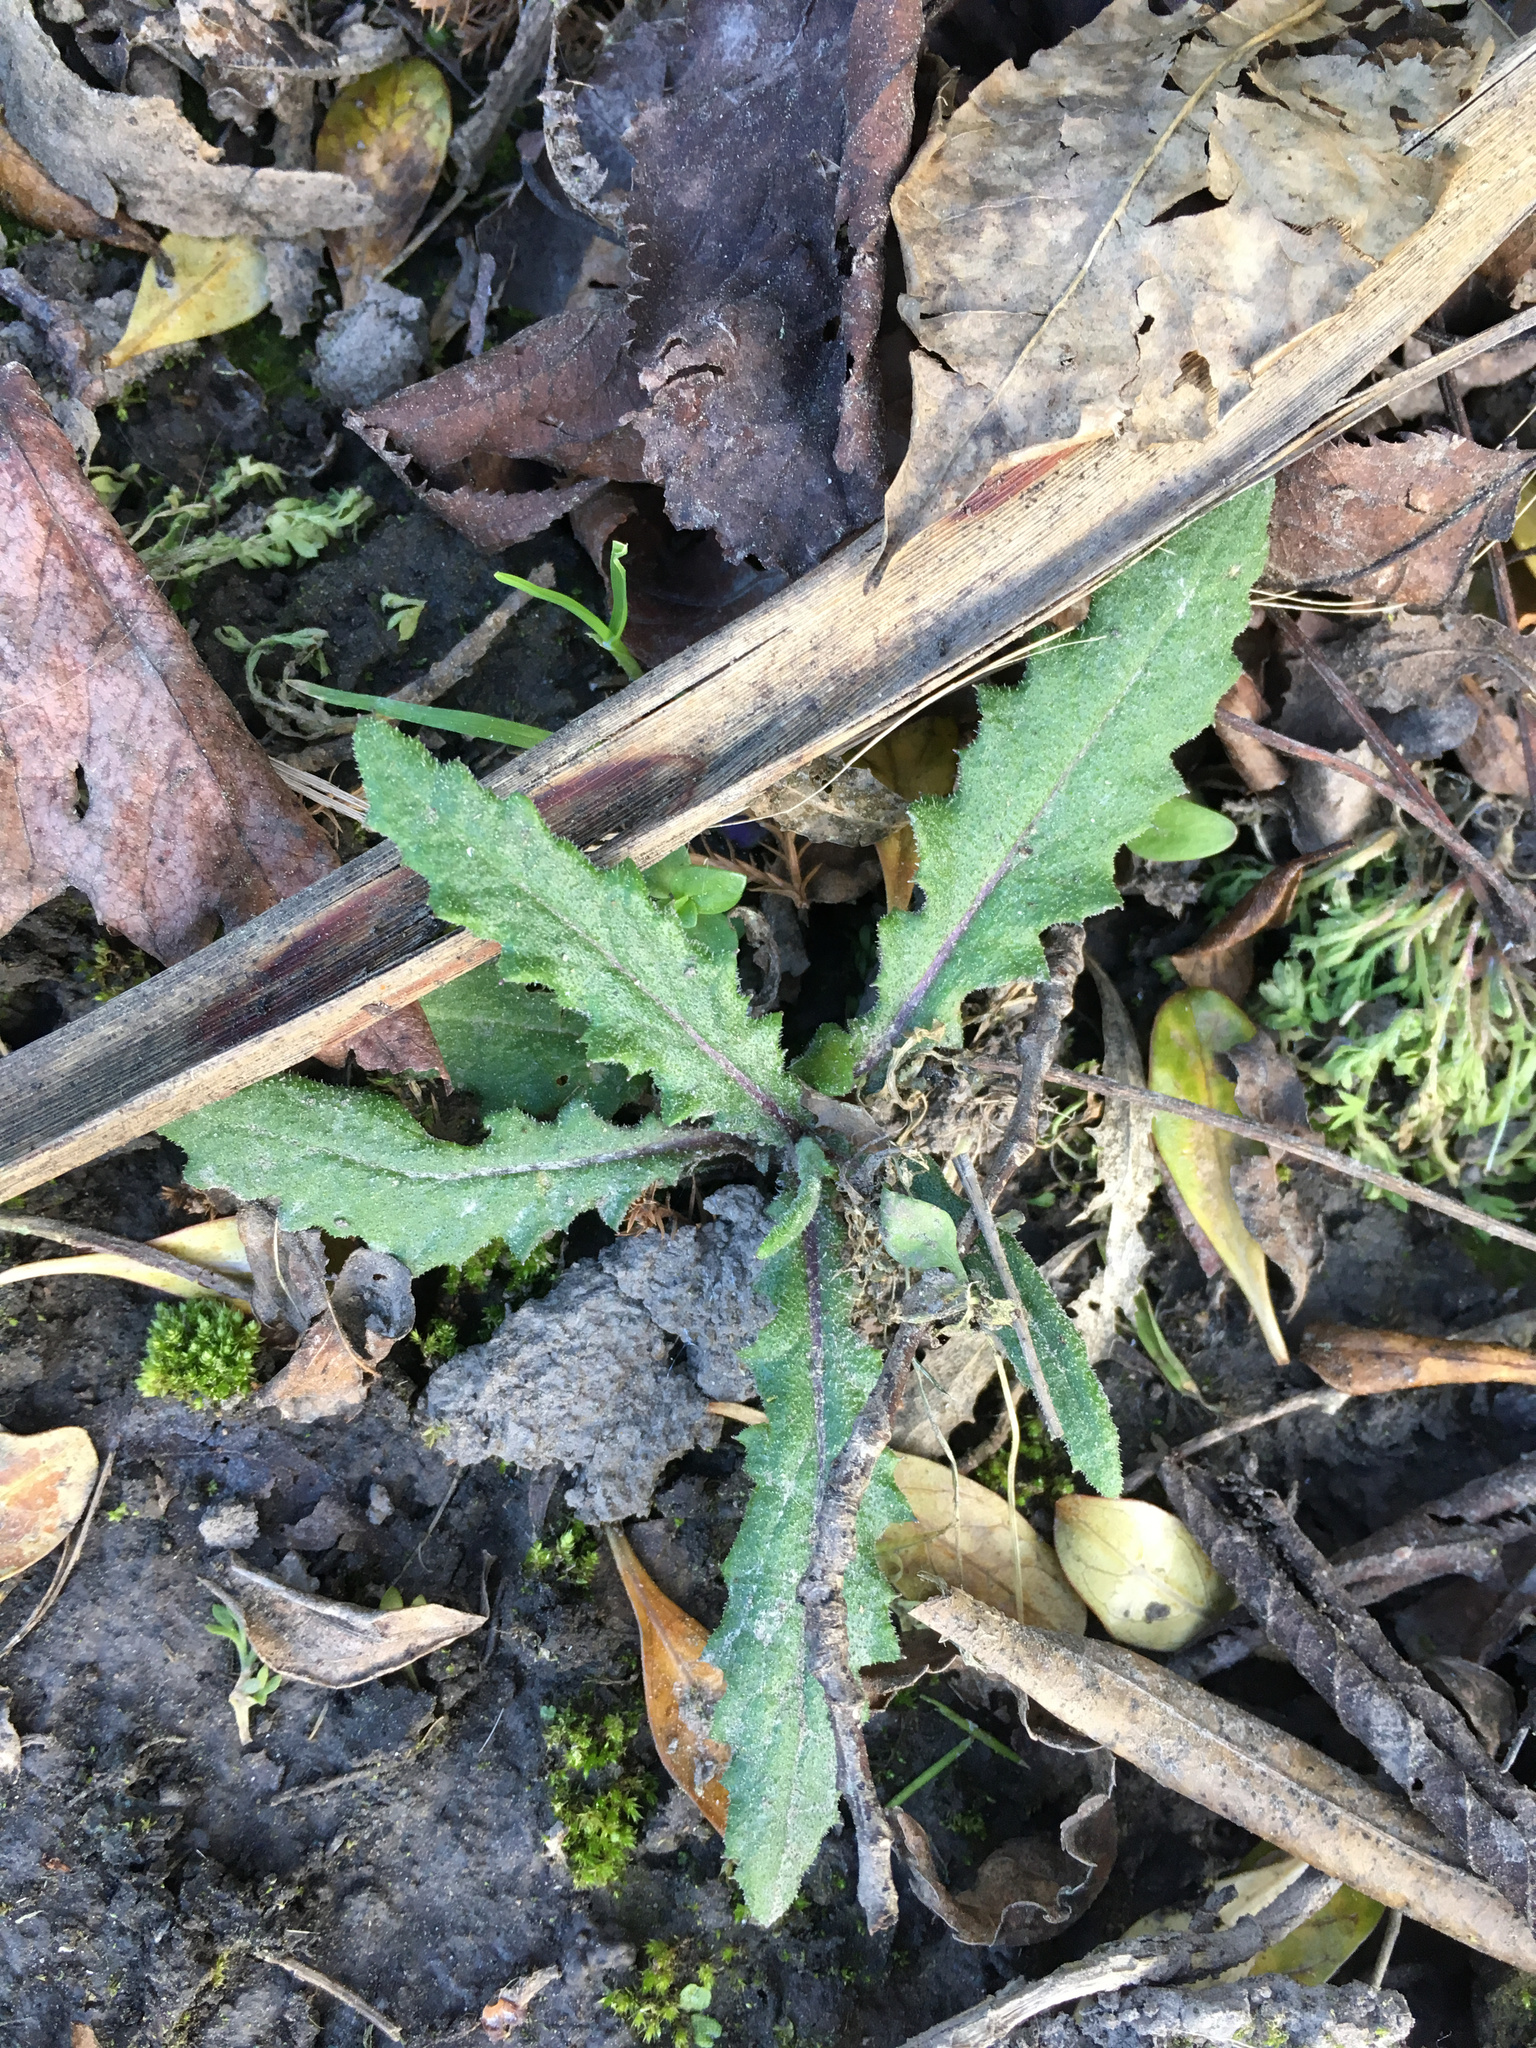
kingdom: Plantae
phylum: Tracheophyta
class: Magnoliopsida
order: Asterales
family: Asteraceae
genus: Senecio
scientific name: Senecio minimus
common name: Toothed fireweed
